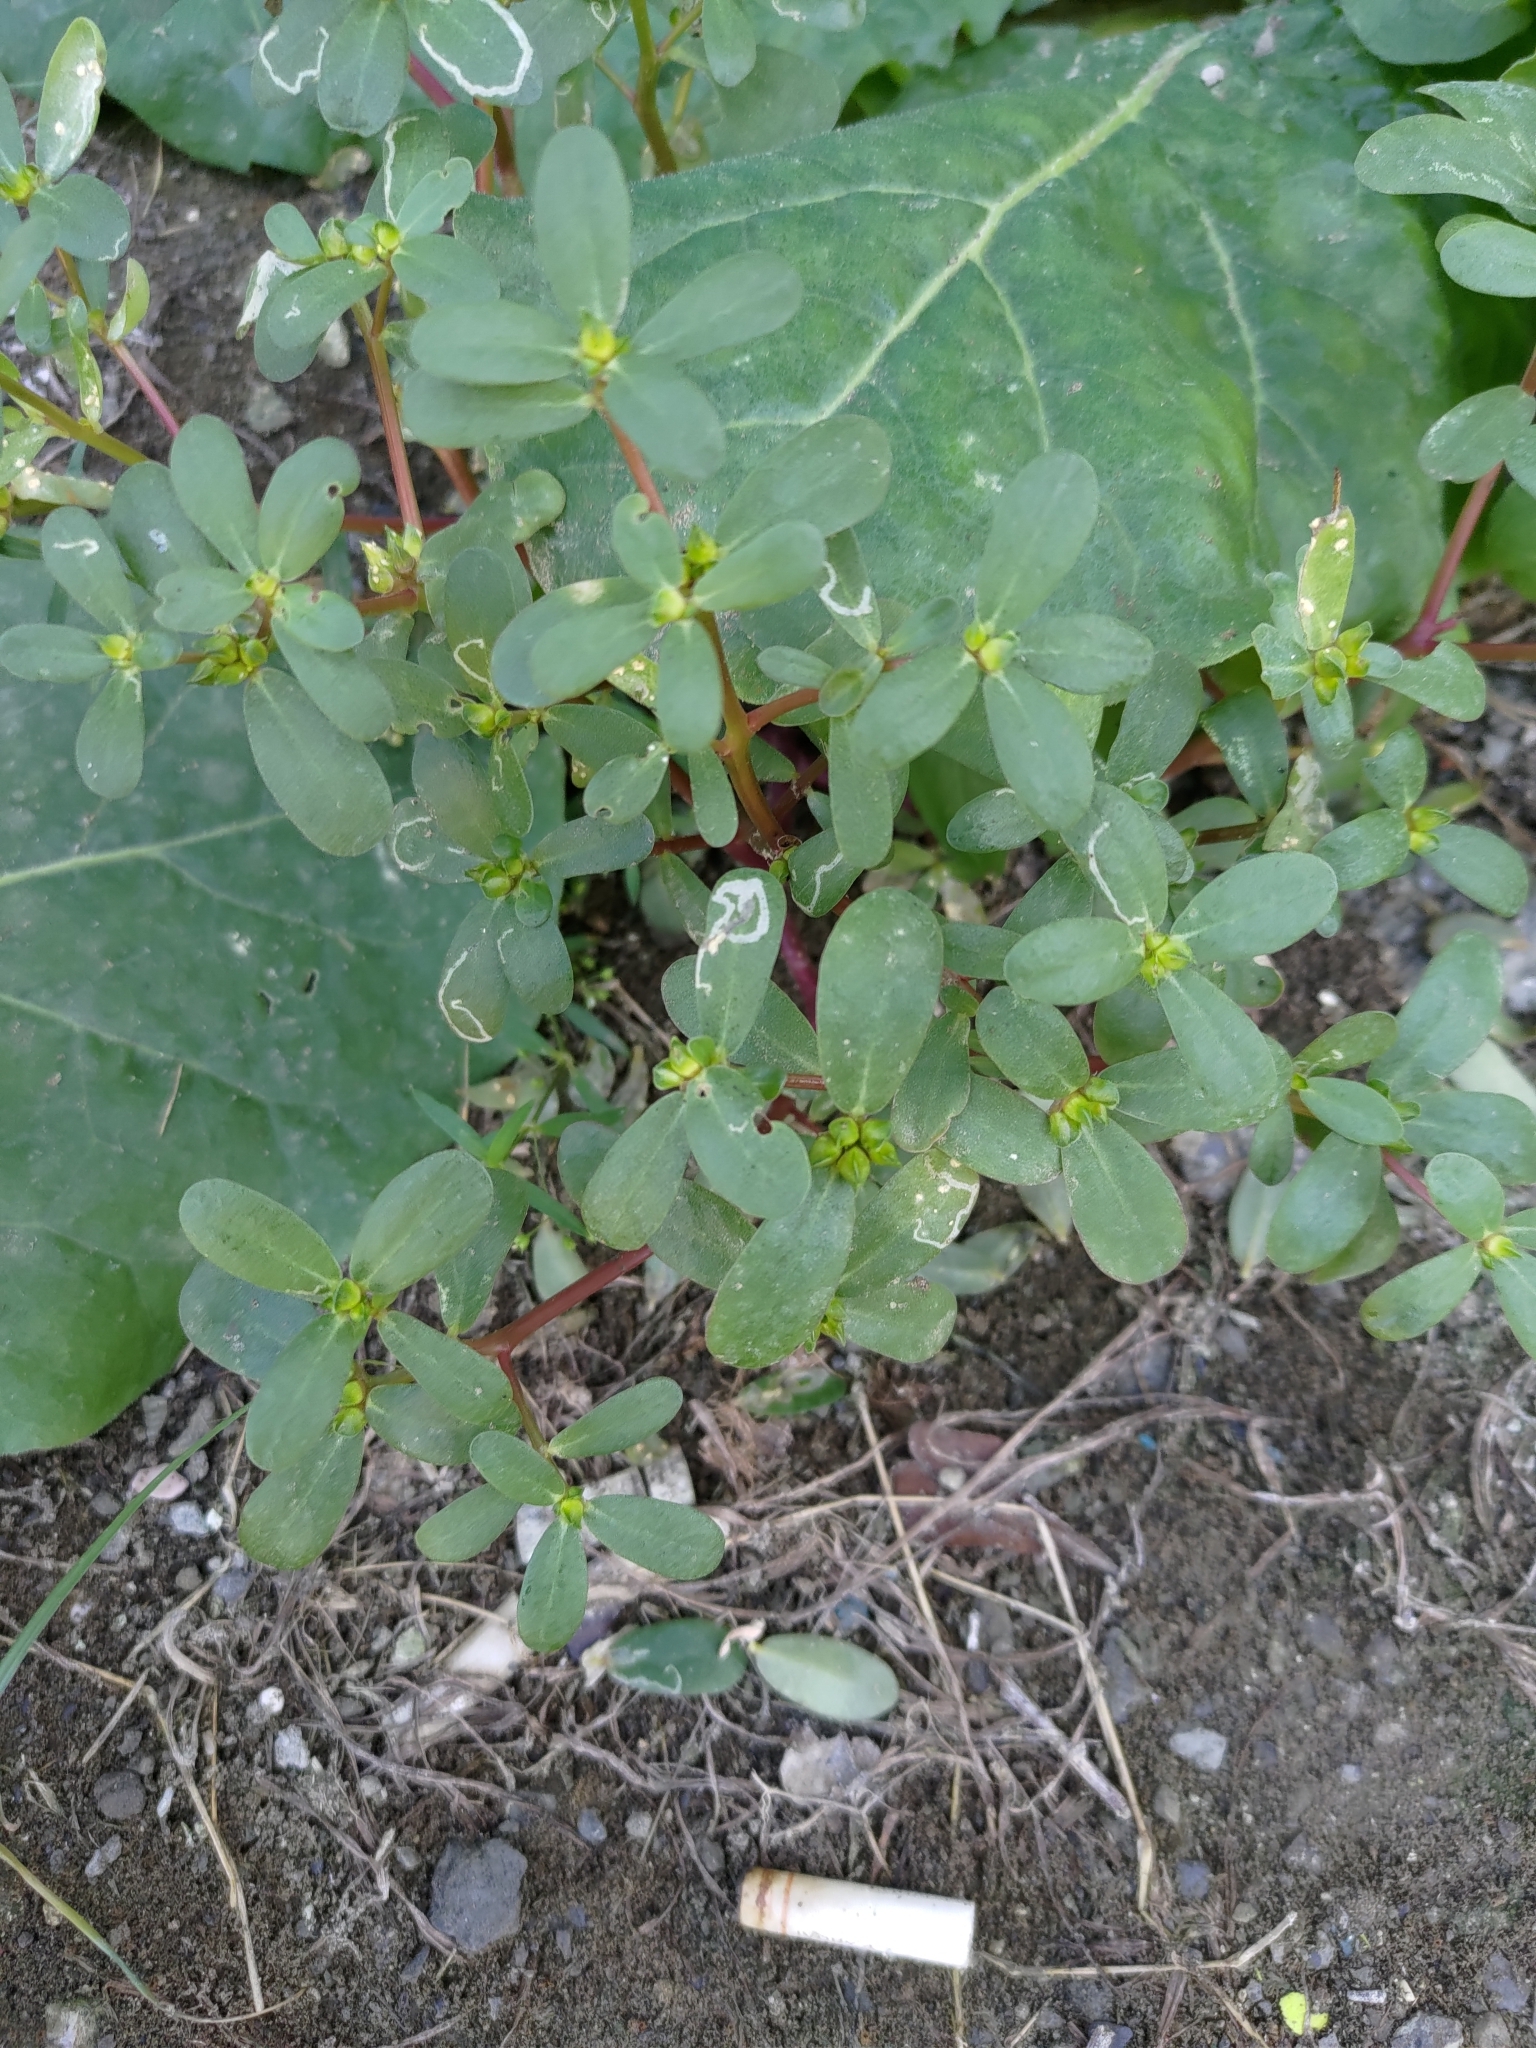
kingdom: Plantae
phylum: Tracheophyta
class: Magnoliopsida
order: Caryophyllales
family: Portulacaceae
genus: Portulaca
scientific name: Portulaca oleracea
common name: Common purslane
